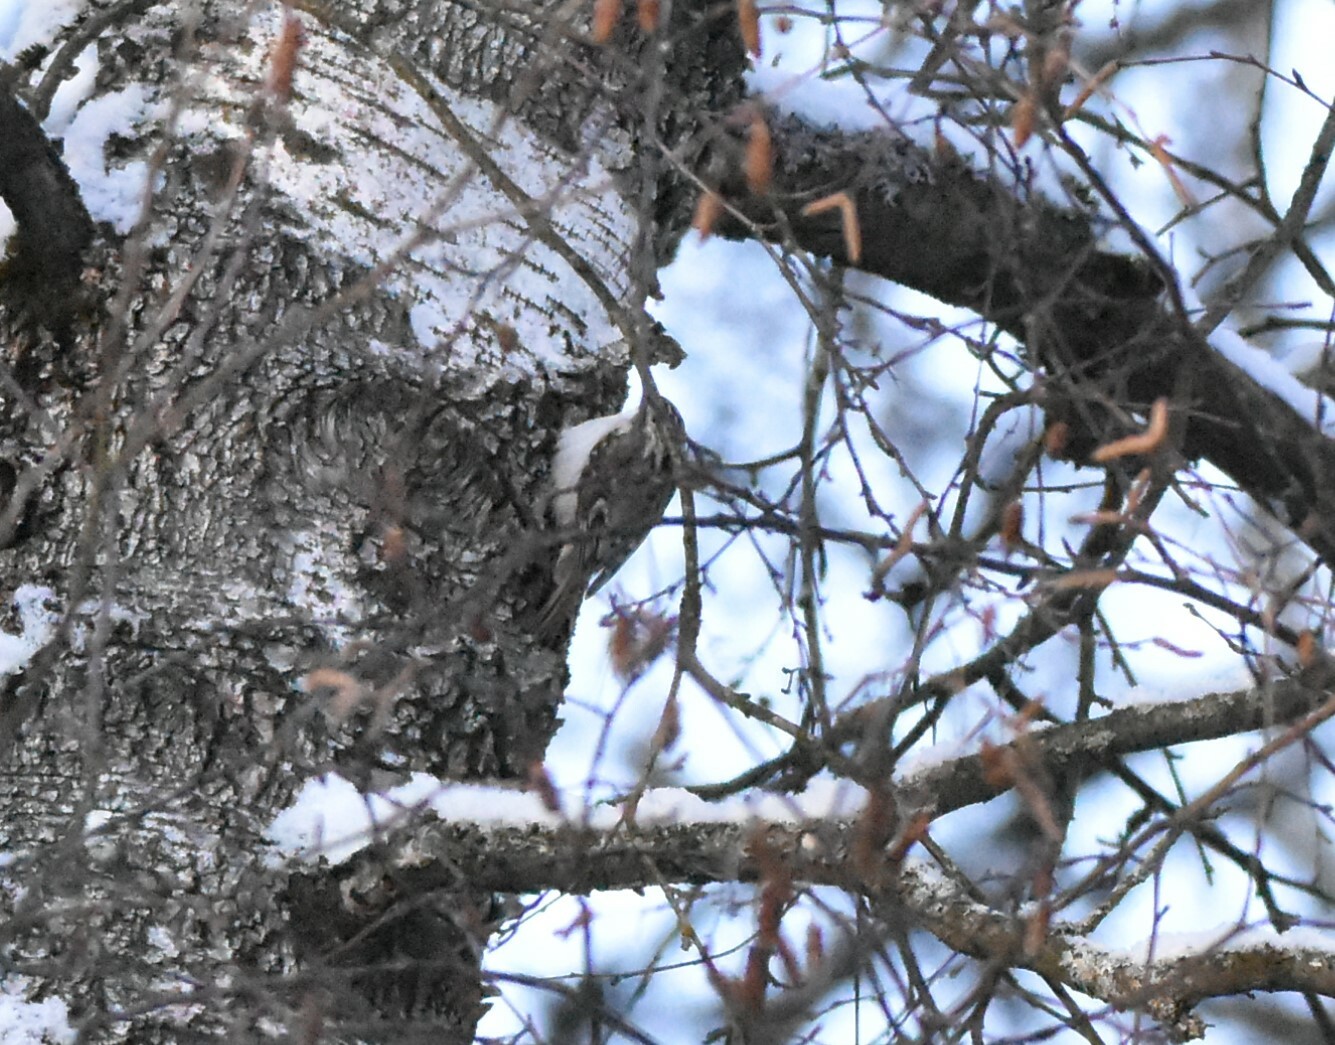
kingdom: Animalia
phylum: Chordata
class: Aves
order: Passeriformes
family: Certhiidae
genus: Certhia
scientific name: Certhia familiaris
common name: Eurasian treecreeper
